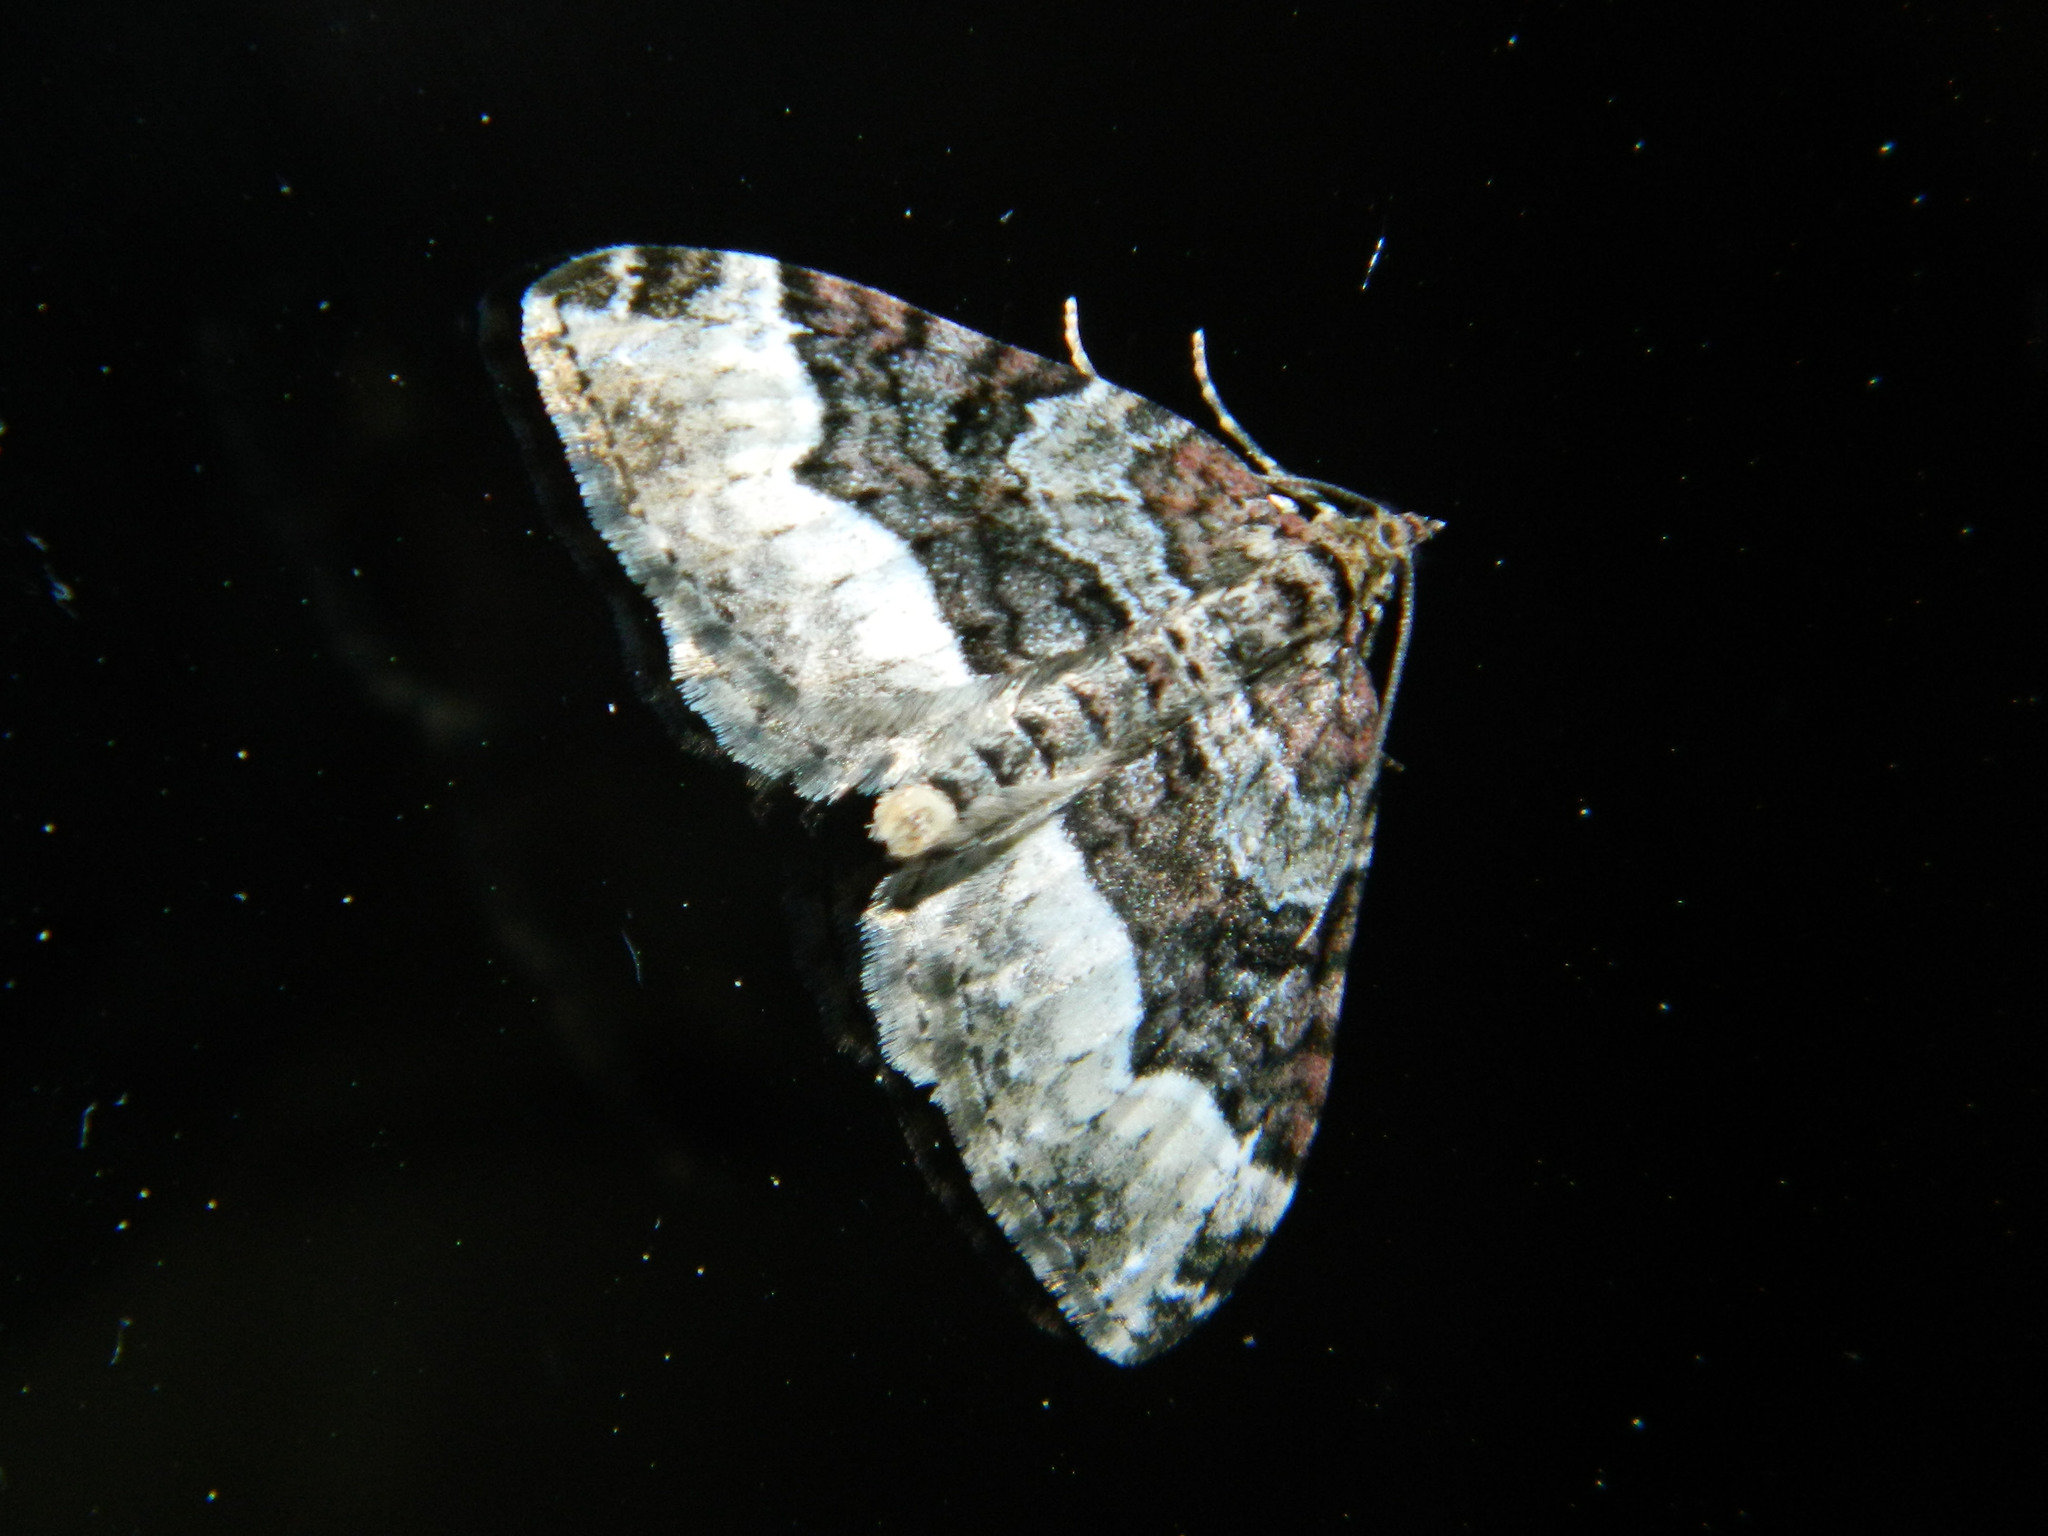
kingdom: Animalia
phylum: Arthropoda
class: Insecta
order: Lepidoptera
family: Geometridae
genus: Euphyia
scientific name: Euphyia intermediata
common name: Sharp-angled carpet
